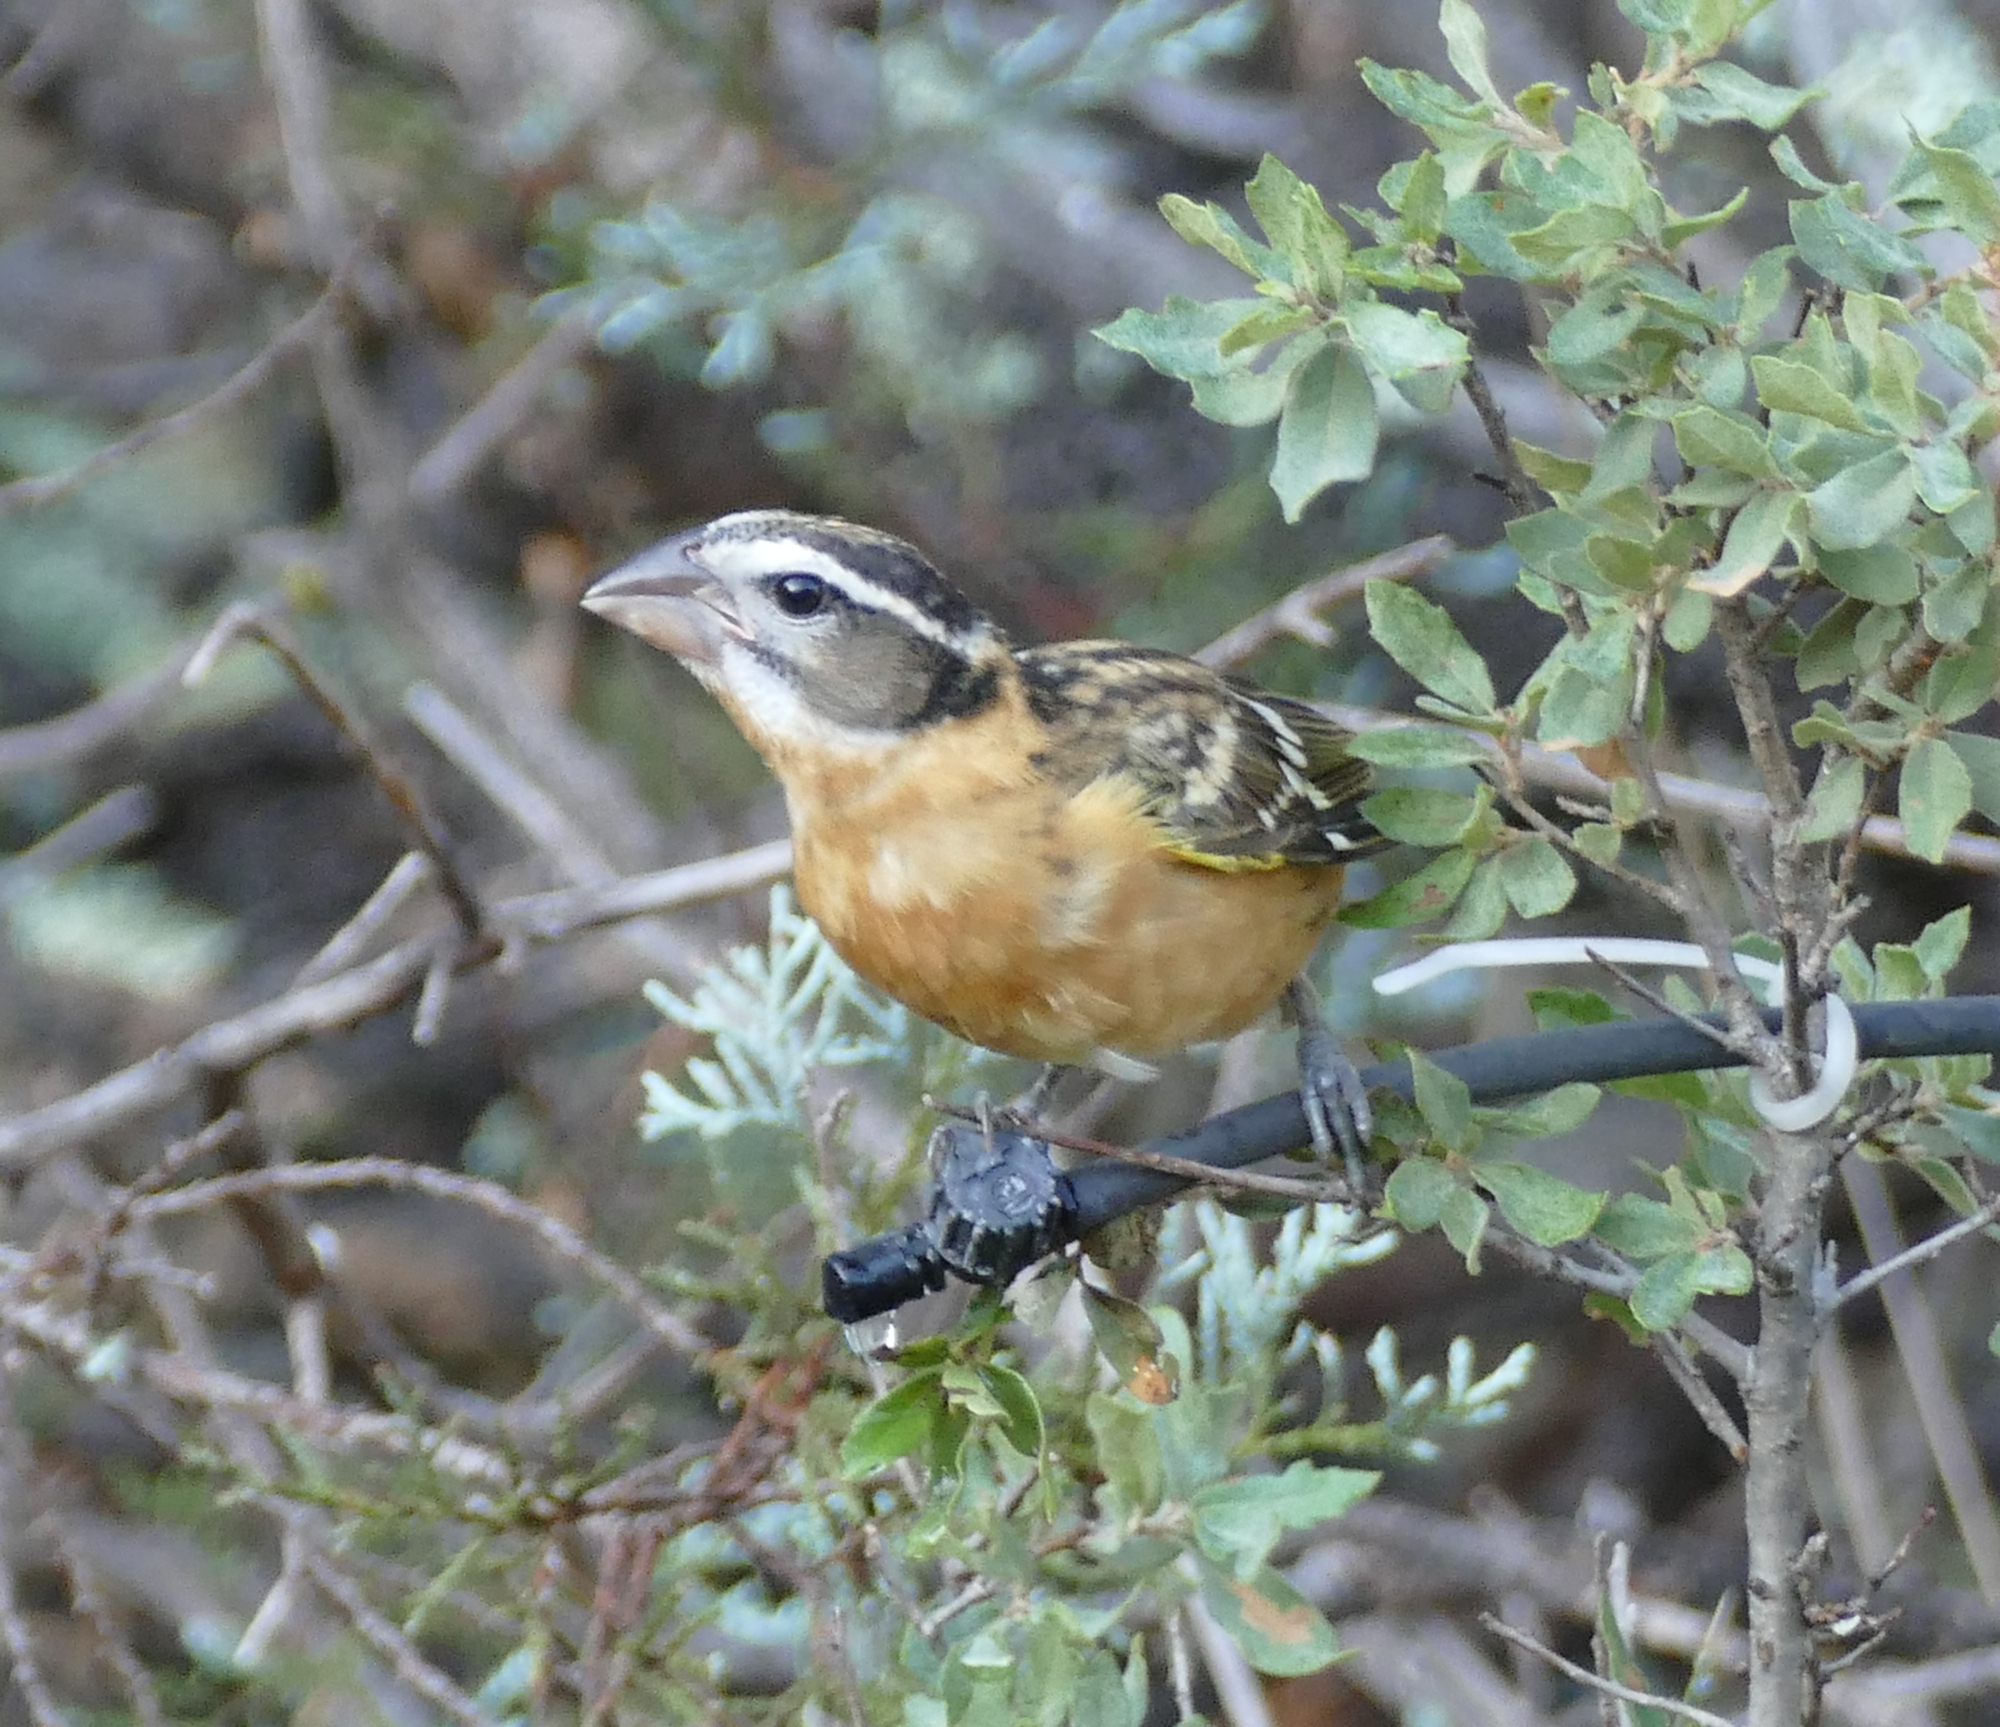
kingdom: Animalia
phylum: Chordata
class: Aves
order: Passeriformes
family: Cardinalidae
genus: Pheucticus
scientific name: Pheucticus melanocephalus
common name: Black-headed grosbeak
